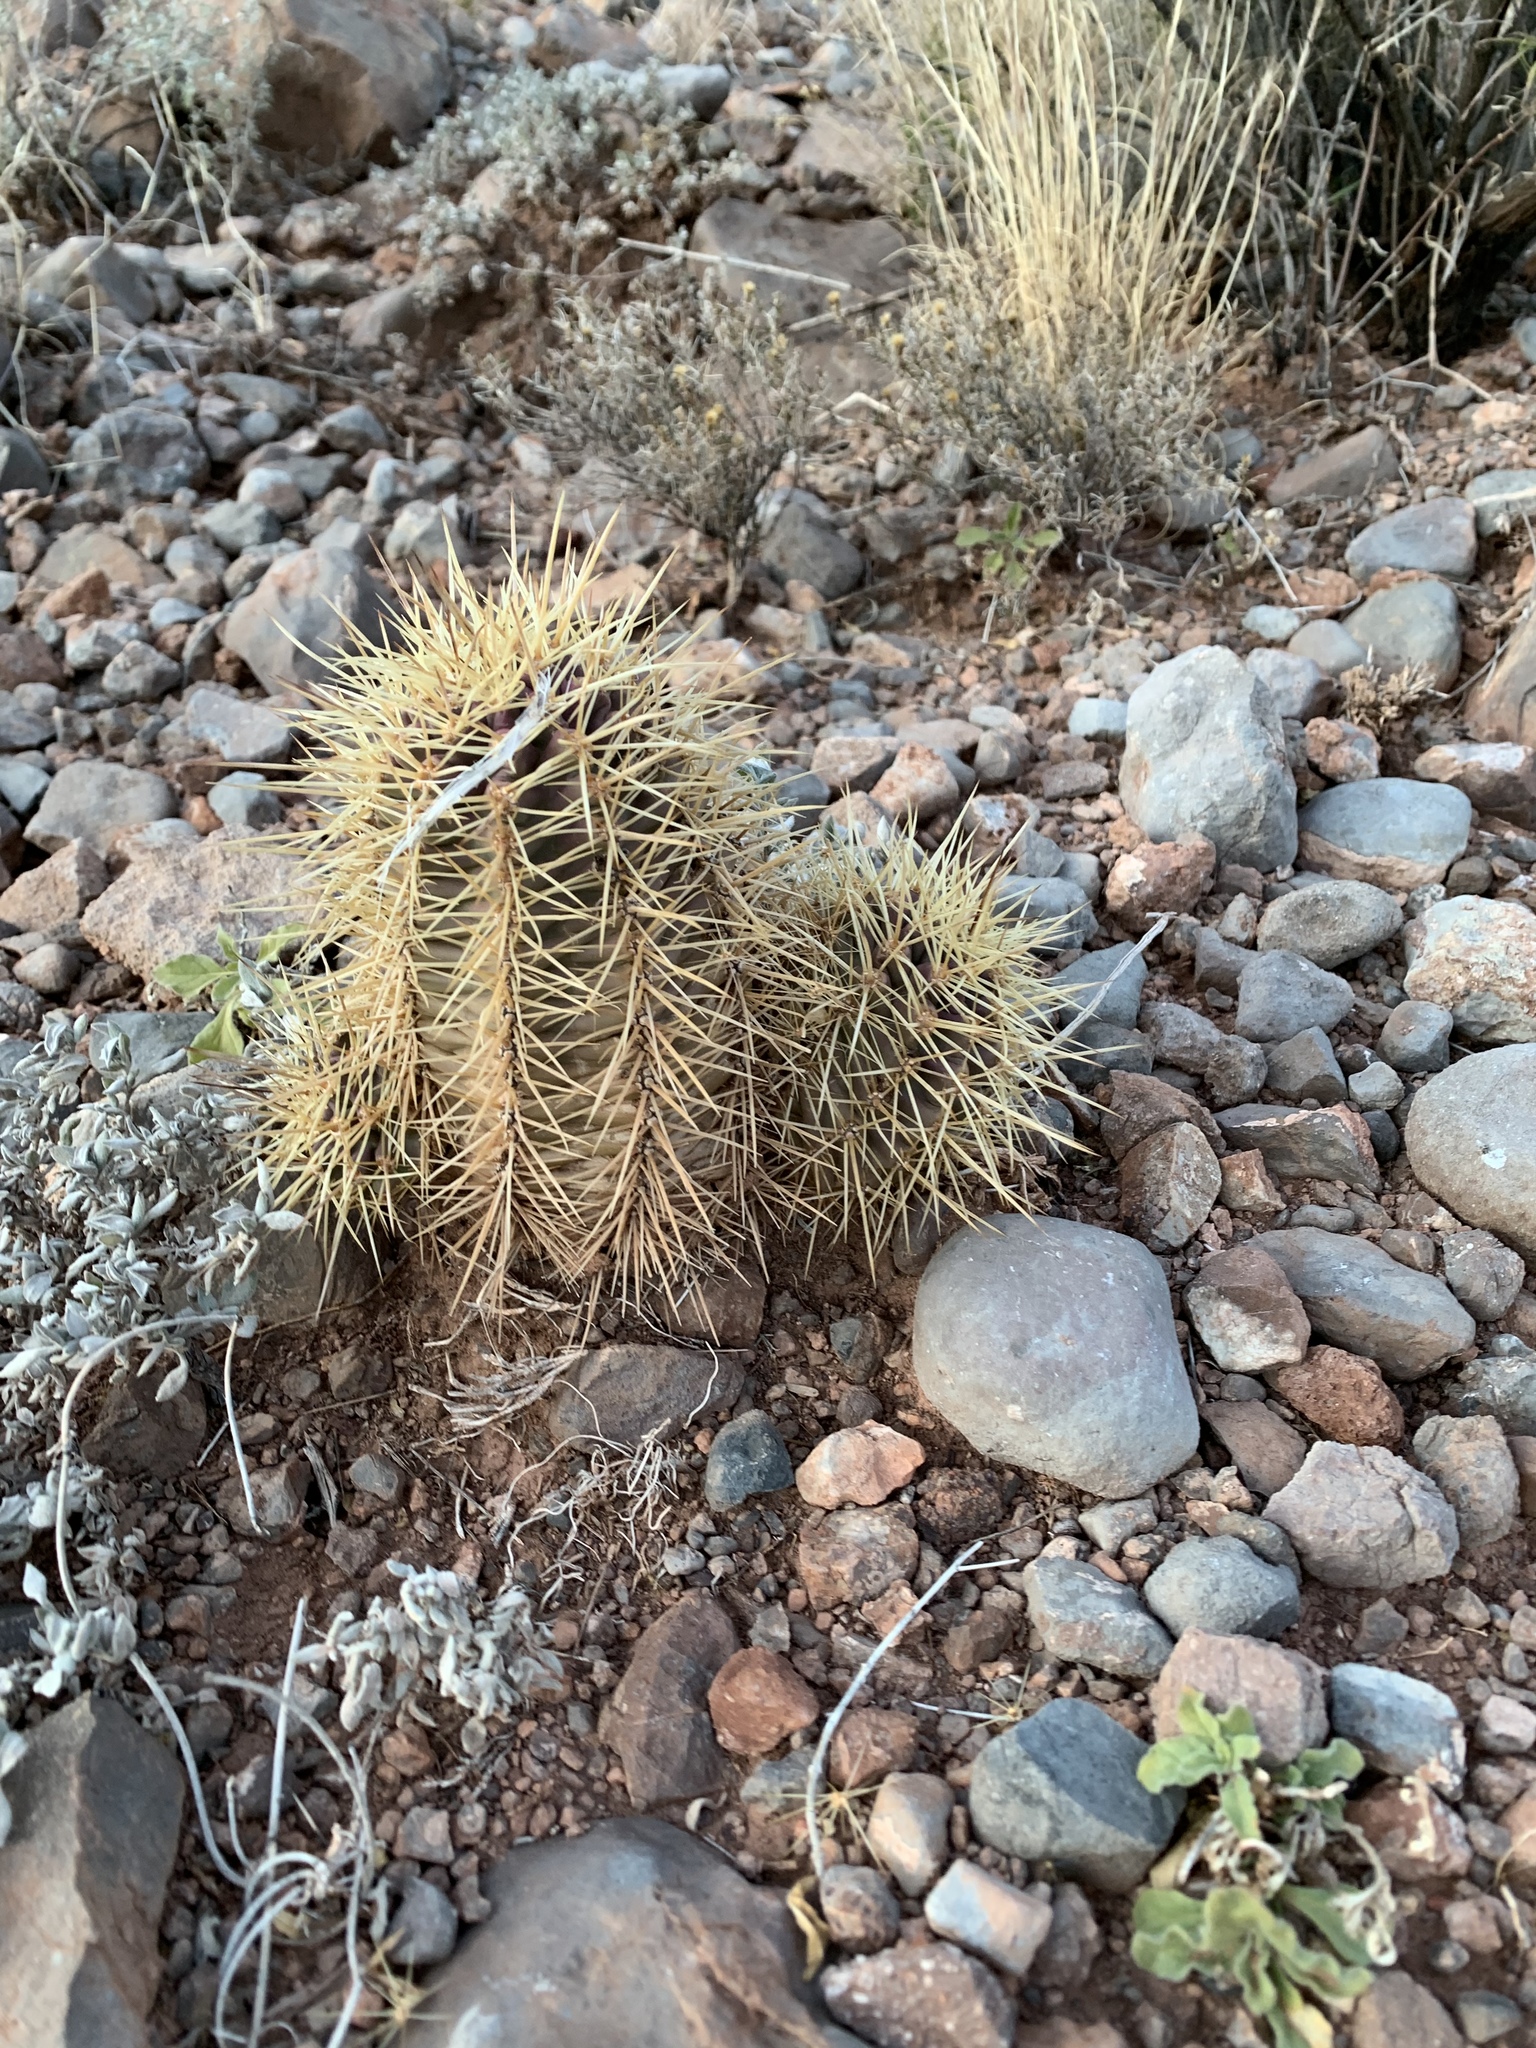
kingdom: Plantae
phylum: Tracheophyta
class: Magnoliopsida
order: Caryophyllales
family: Cactaceae
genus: Echinocereus
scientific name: Echinocereus coccineus
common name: Scarlet hedgehog cactus
